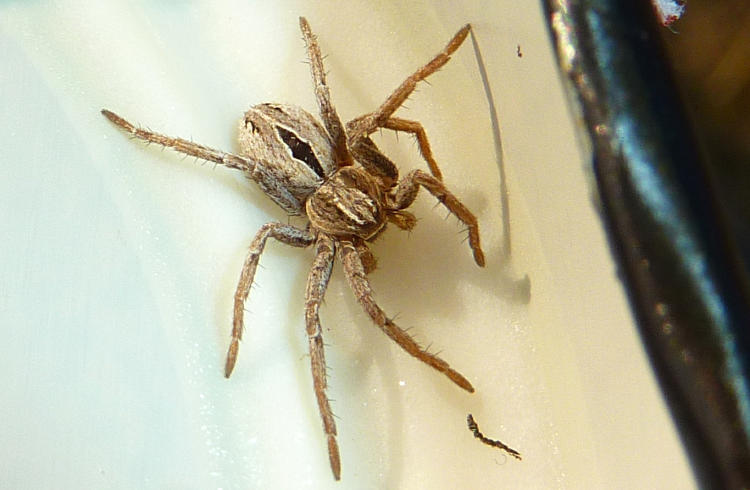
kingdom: Animalia
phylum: Arthropoda
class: Arachnida
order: Araneae
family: Philodromidae
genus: Thanatus
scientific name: Thanatus formicinus
